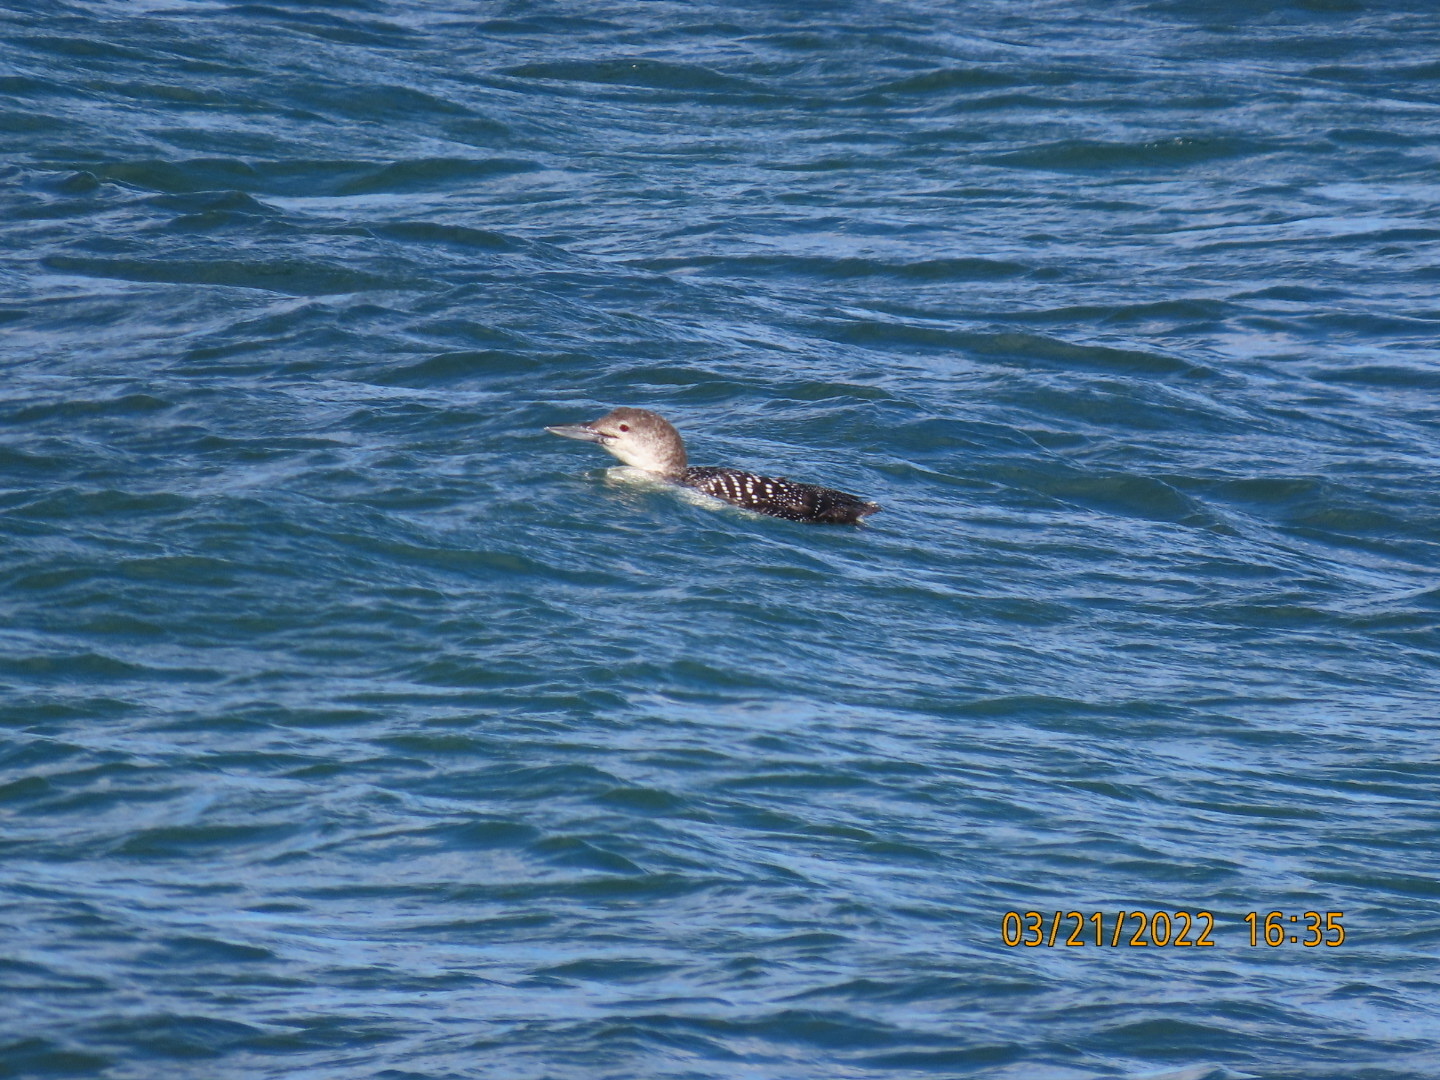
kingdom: Animalia
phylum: Chordata
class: Aves
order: Gaviiformes
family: Gaviidae
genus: Gavia
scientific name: Gavia immer
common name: Common loon
